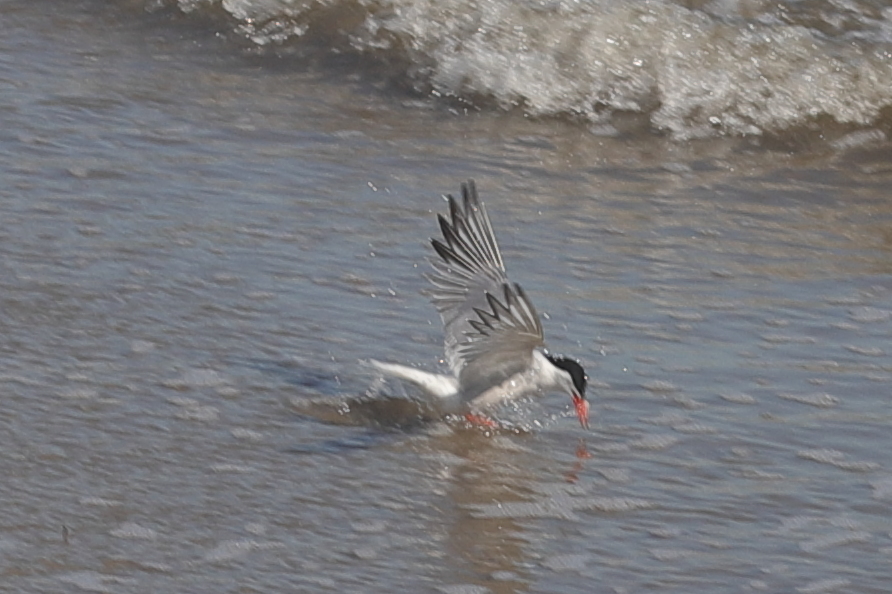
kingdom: Animalia
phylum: Chordata
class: Aves
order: Charadriiformes
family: Laridae
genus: Sterna
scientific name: Sterna hirundo
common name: Common tern
